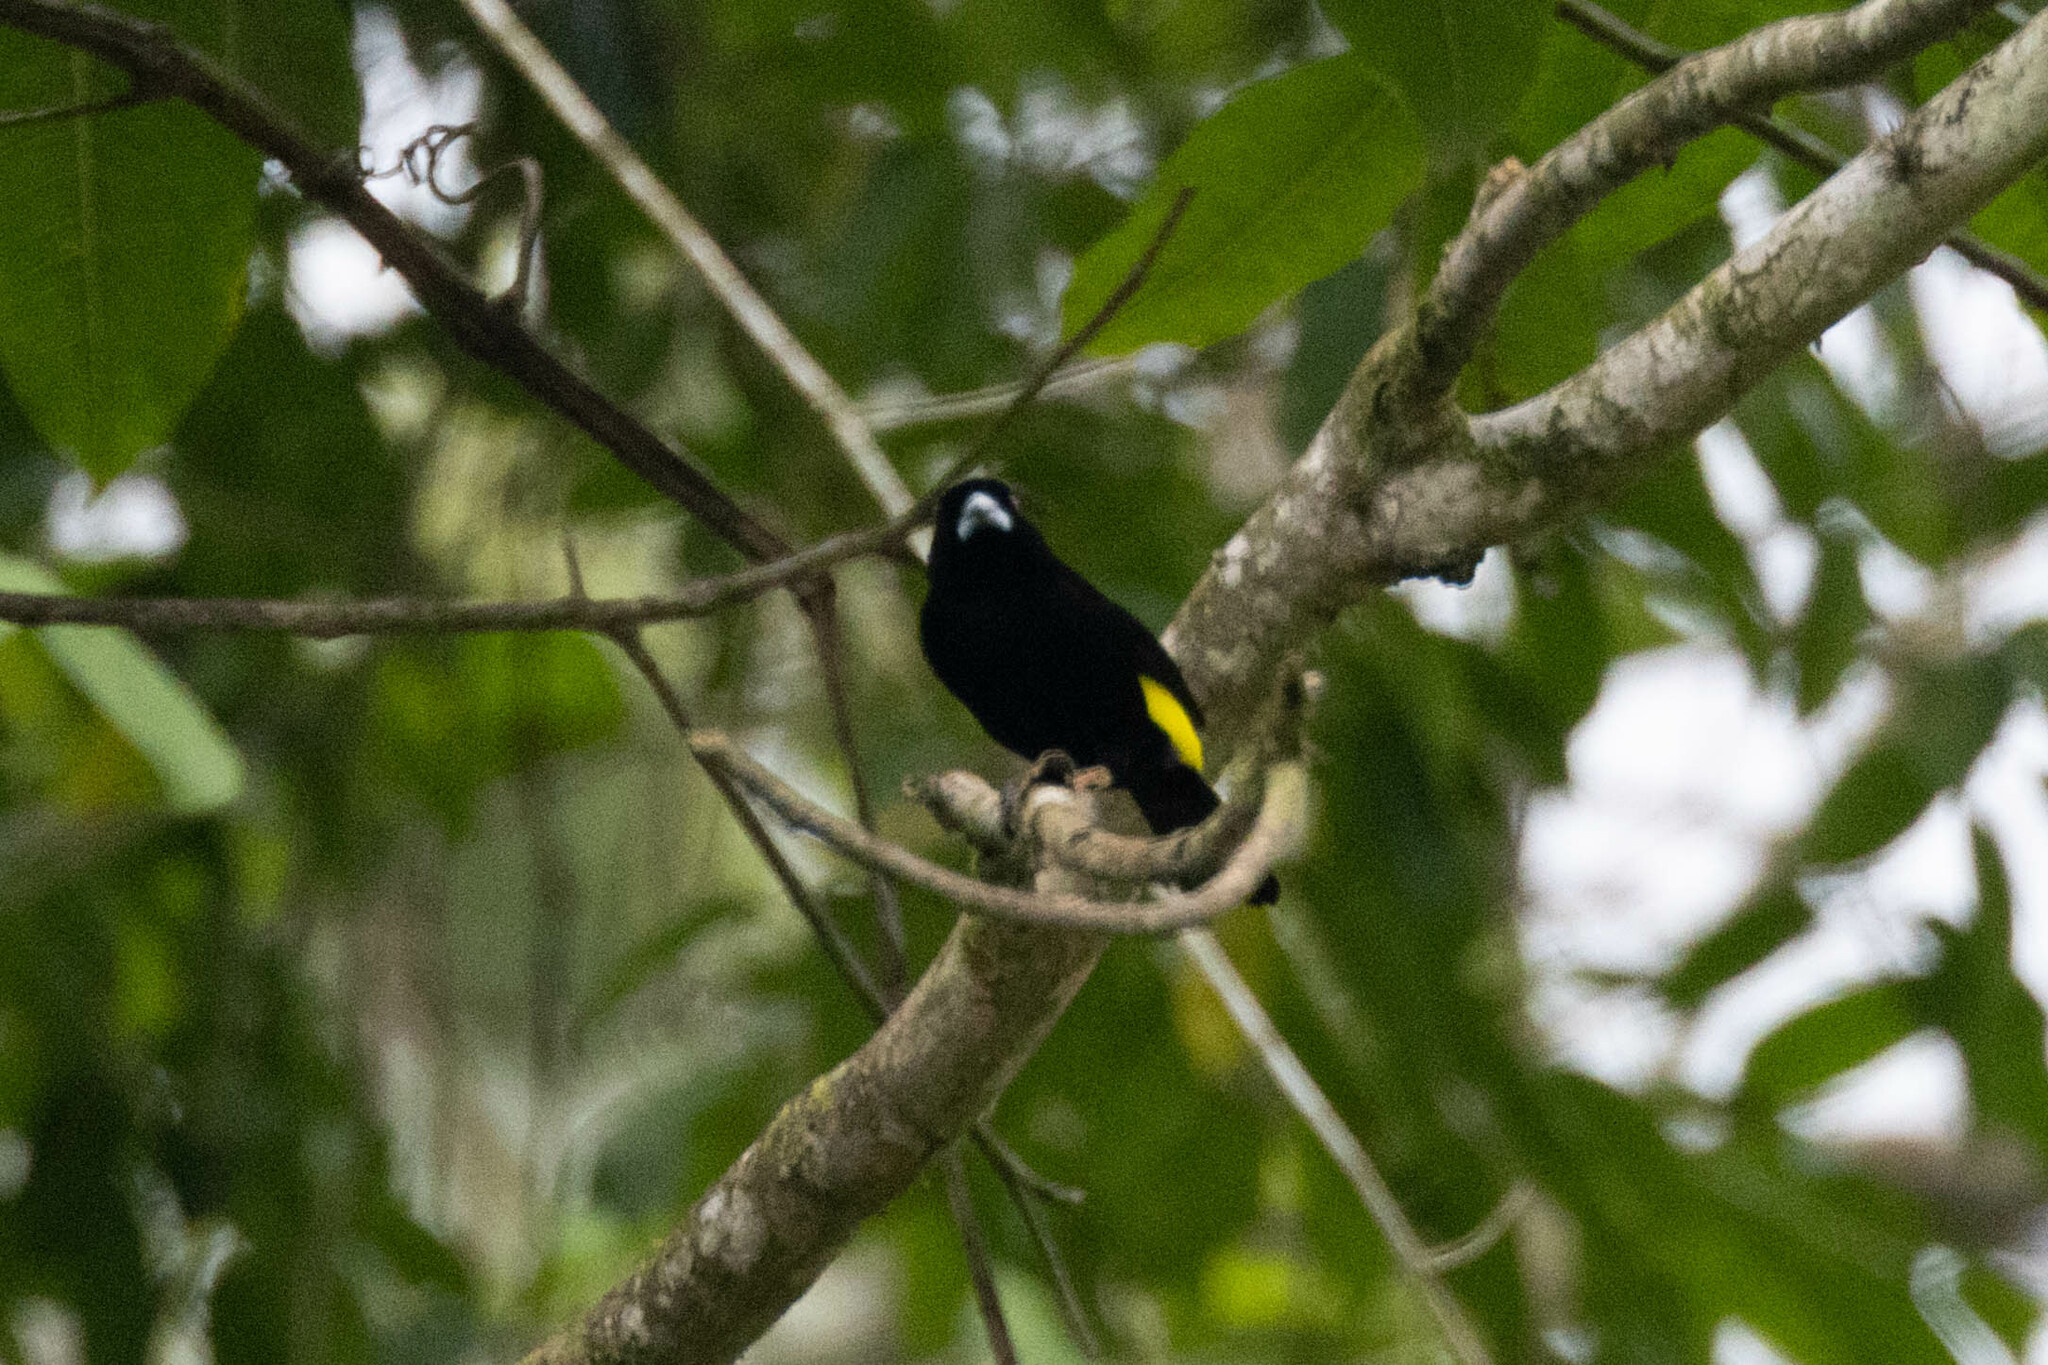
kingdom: Animalia
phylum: Chordata
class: Aves
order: Passeriformes
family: Thraupidae
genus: Ramphocelus
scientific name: Ramphocelus flammigerus
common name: Flame-rumped tanager
